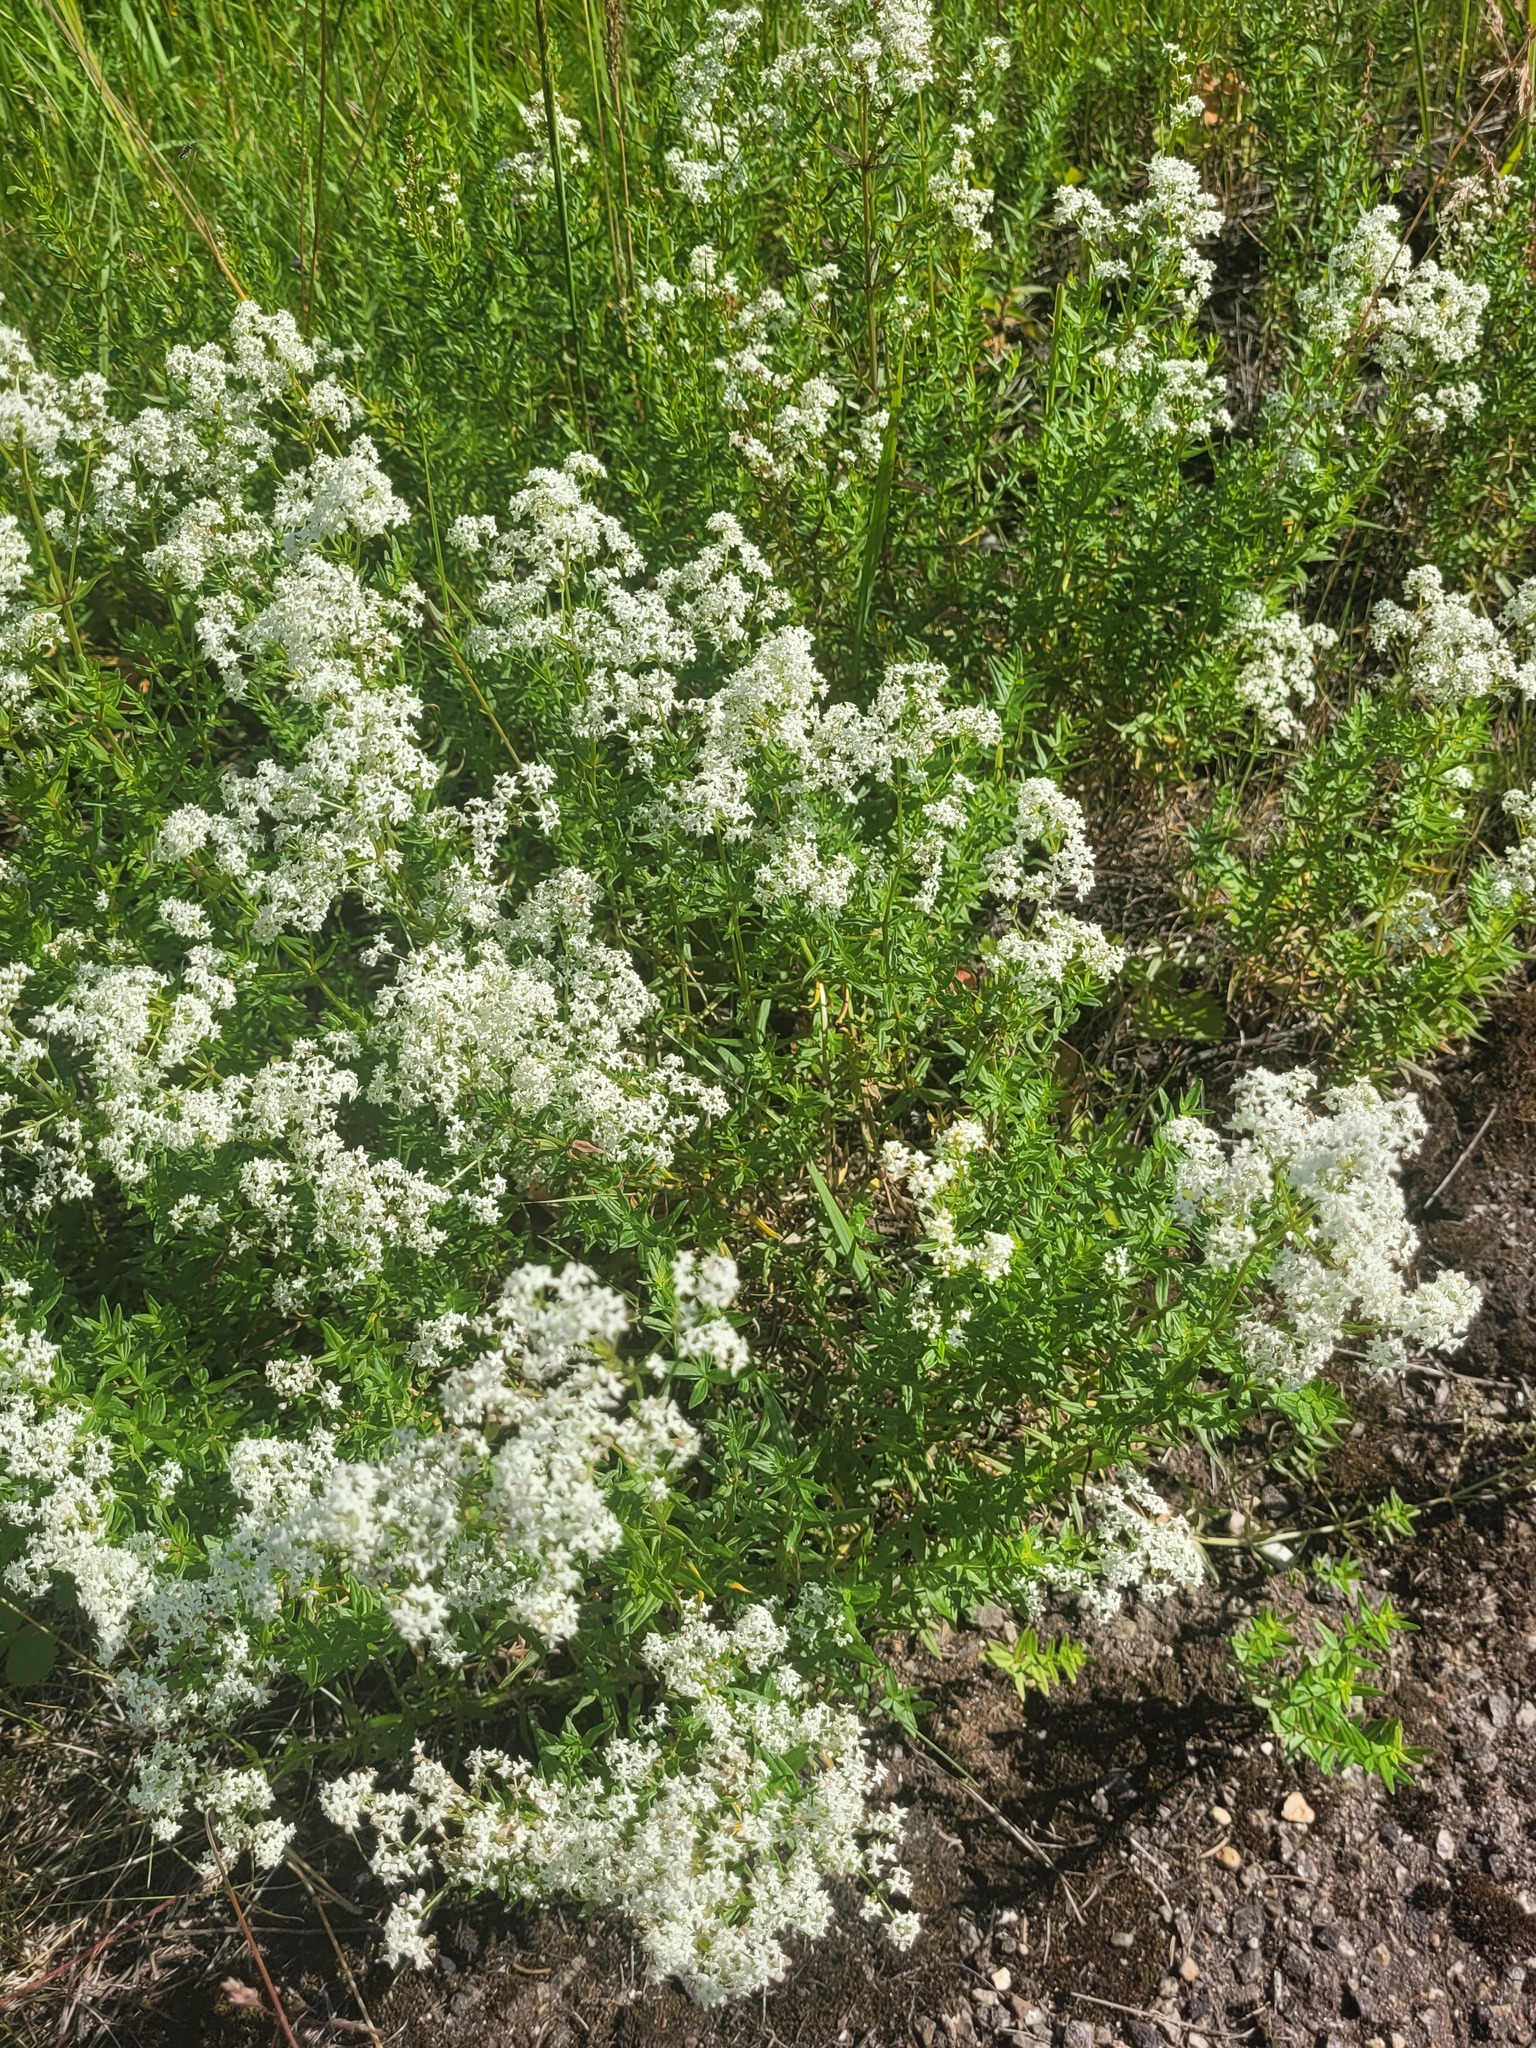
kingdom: Plantae
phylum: Tracheophyta
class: Magnoliopsida
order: Gentianales
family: Rubiaceae
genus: Galium
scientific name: Galium boreale
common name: Northern bedstraw
